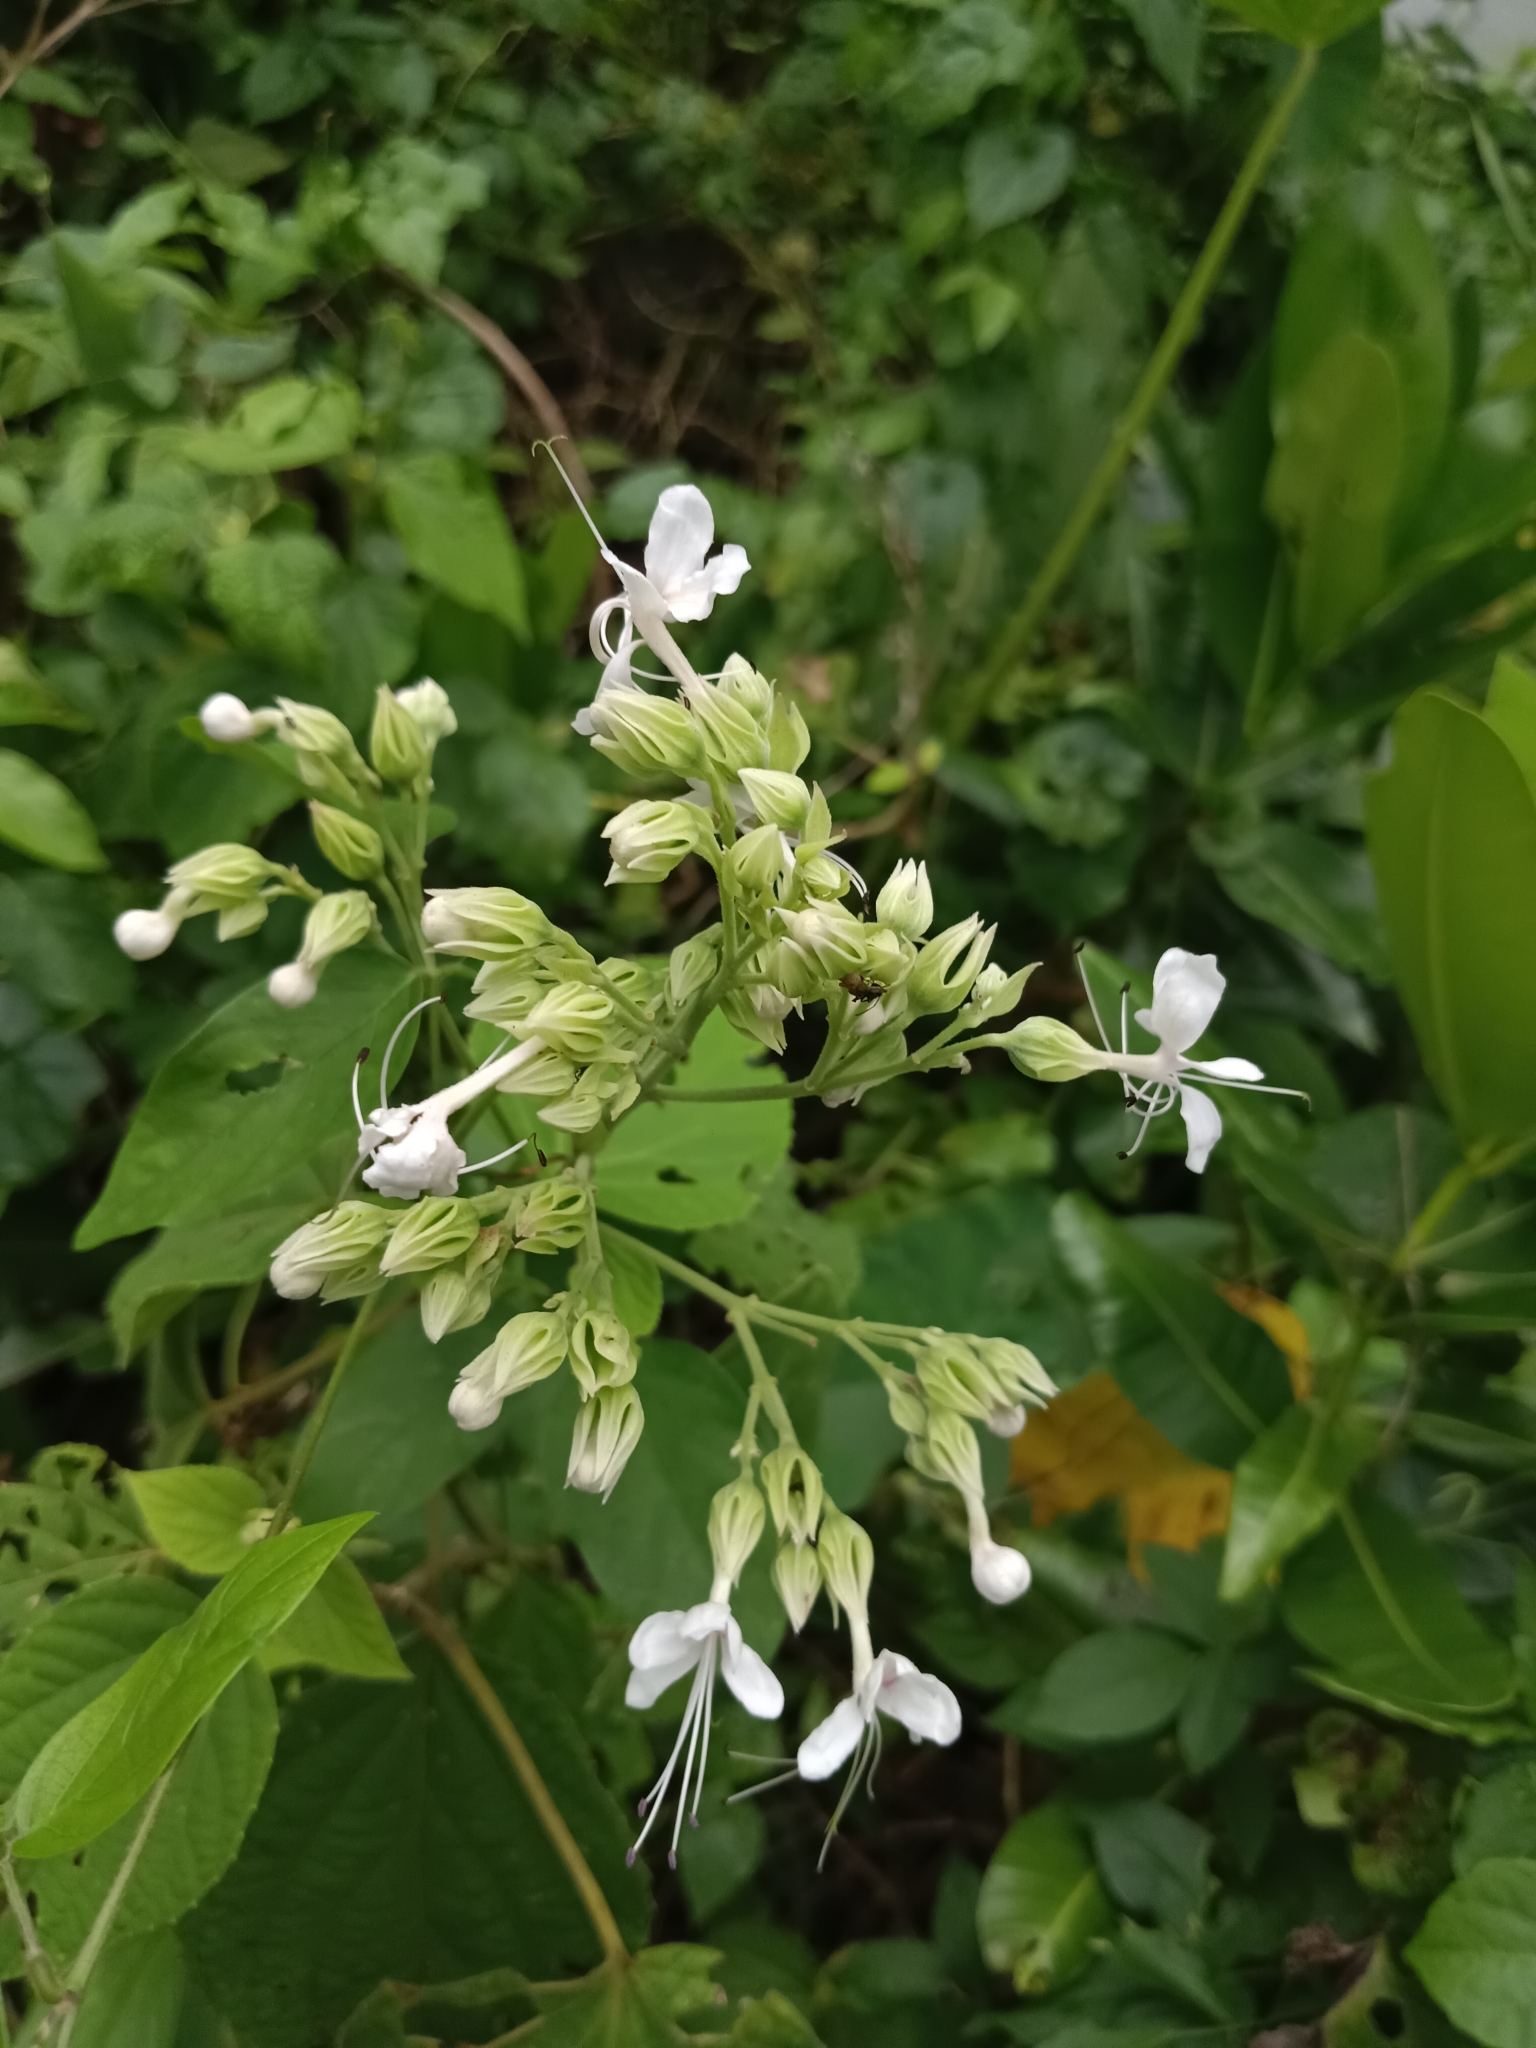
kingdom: Plantae
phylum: Tracheophyta
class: Magnoliopsida
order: Lamiales
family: Lamiaceae
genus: Clerodendrum
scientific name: Clerodendrum infortunatum
